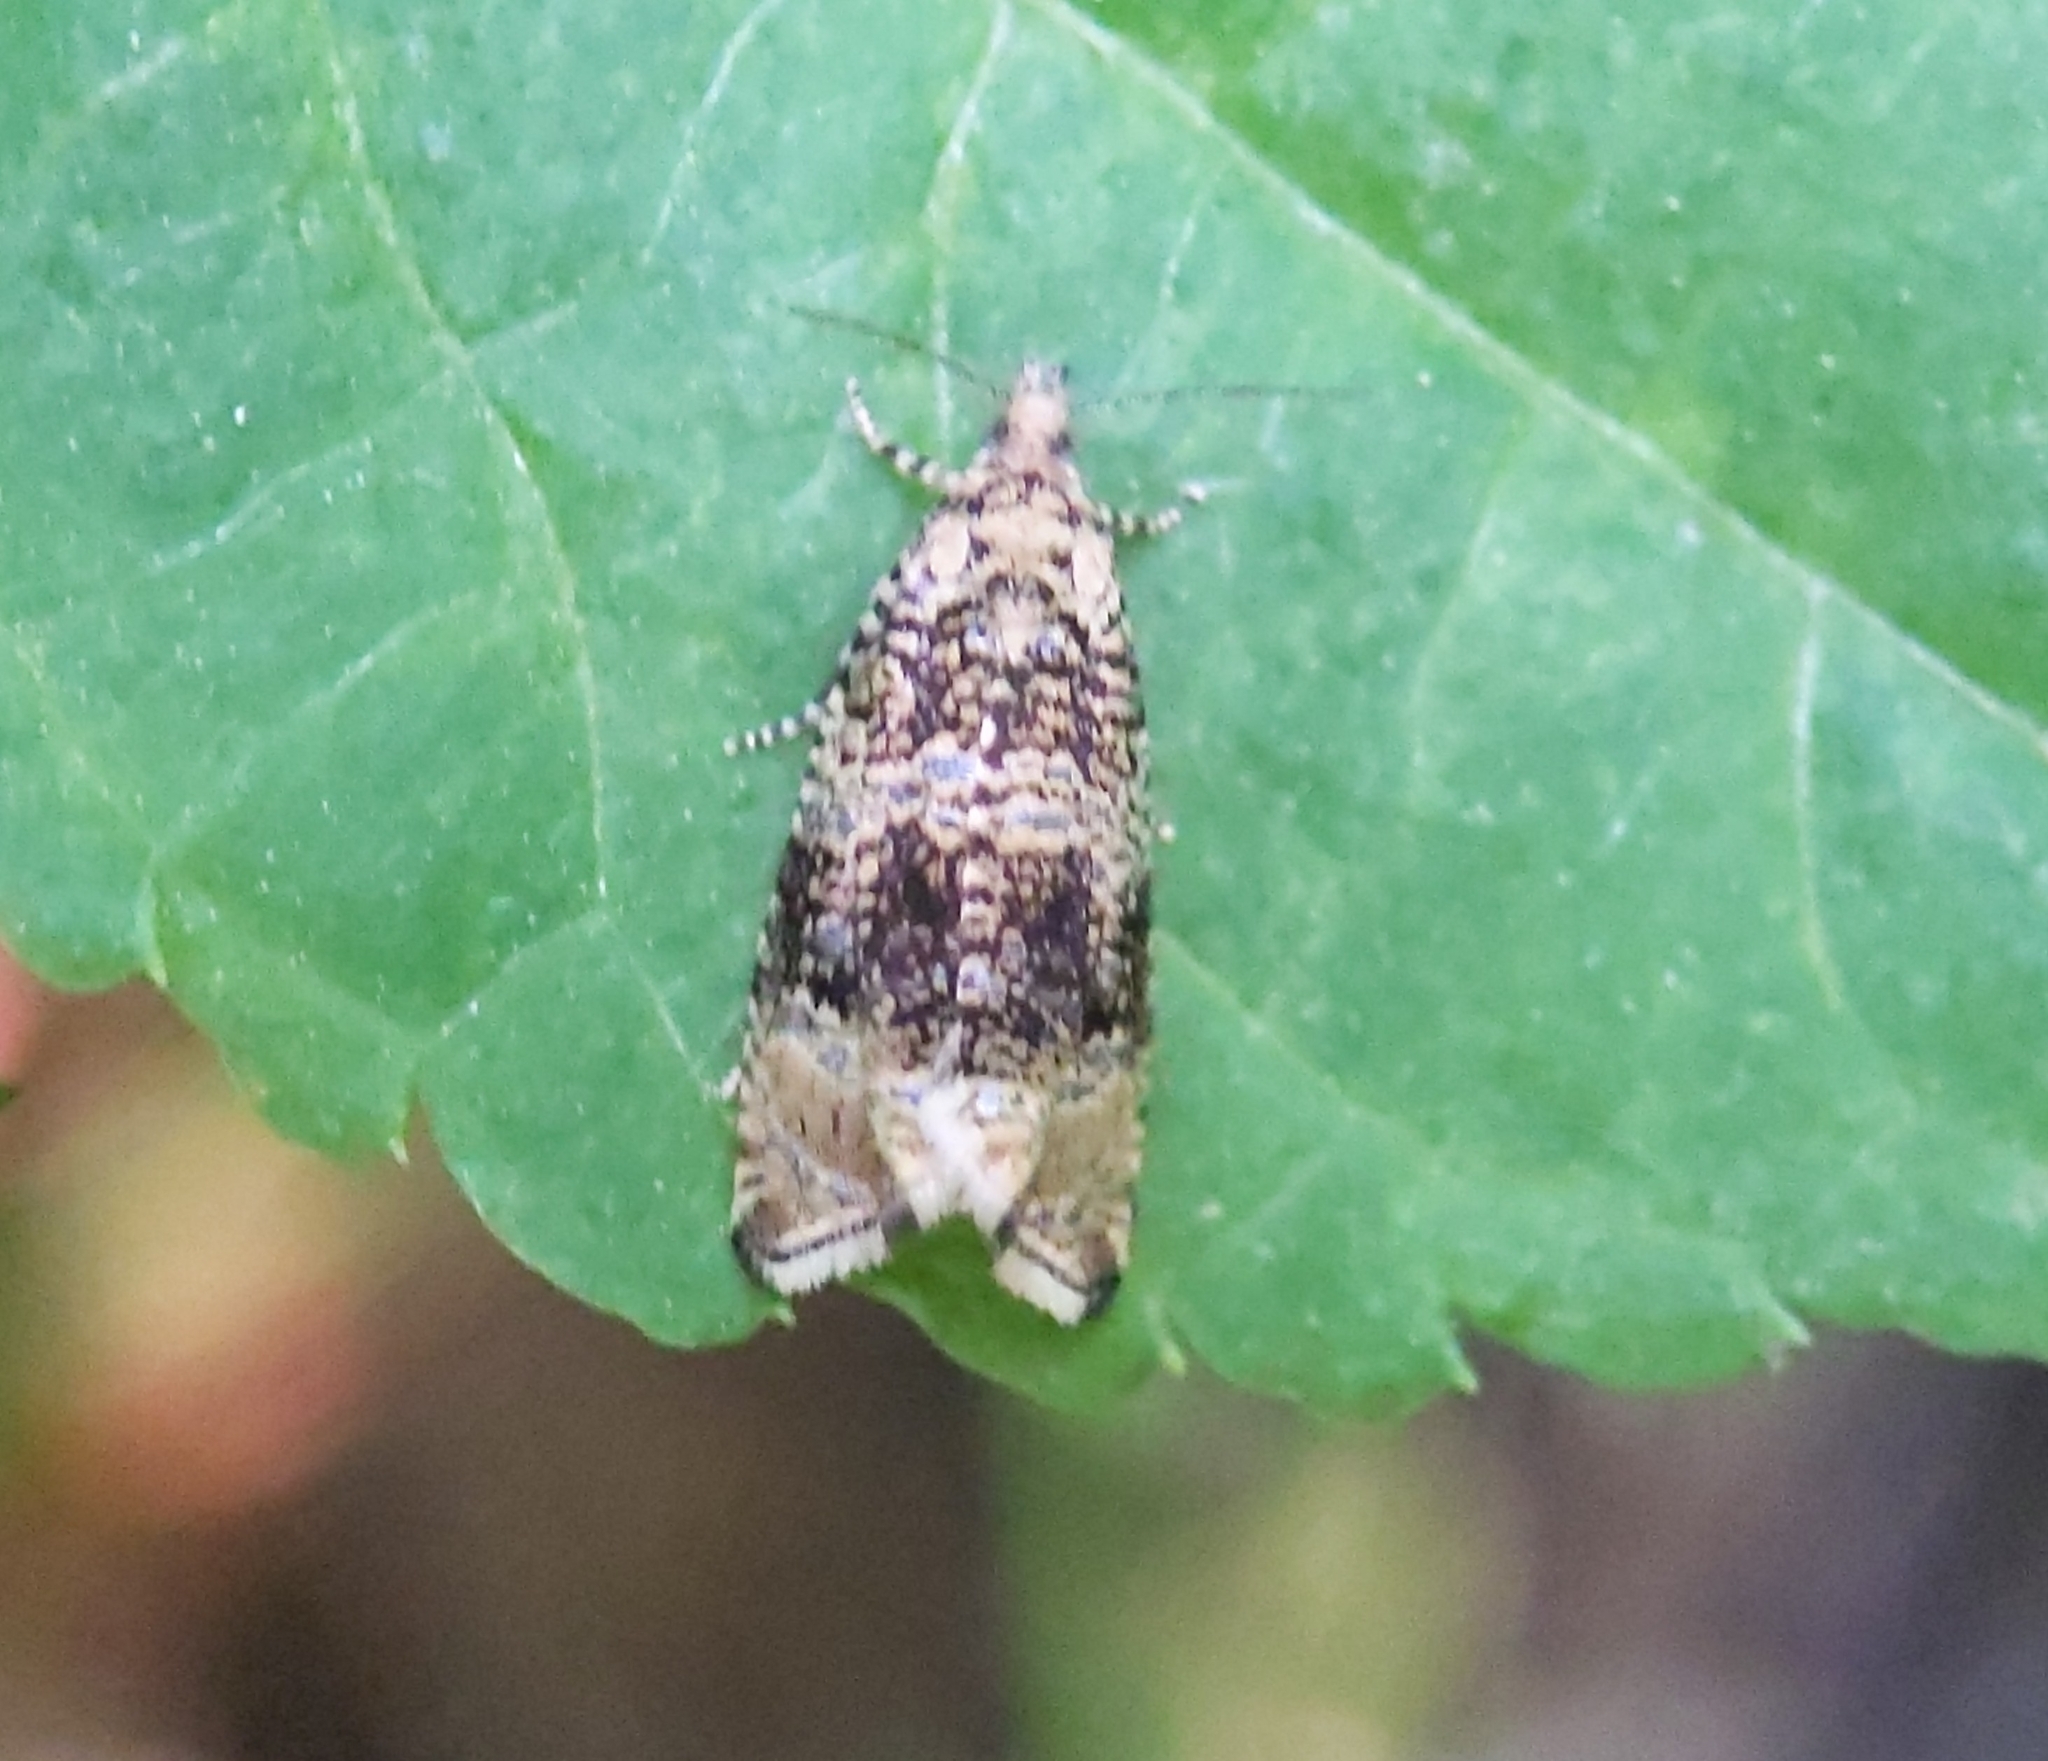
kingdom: Animalia
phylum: Arthropoda
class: Insecta
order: Lepidoptera
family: Tortricidae
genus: Syricoris
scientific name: Syricoris lacunana
